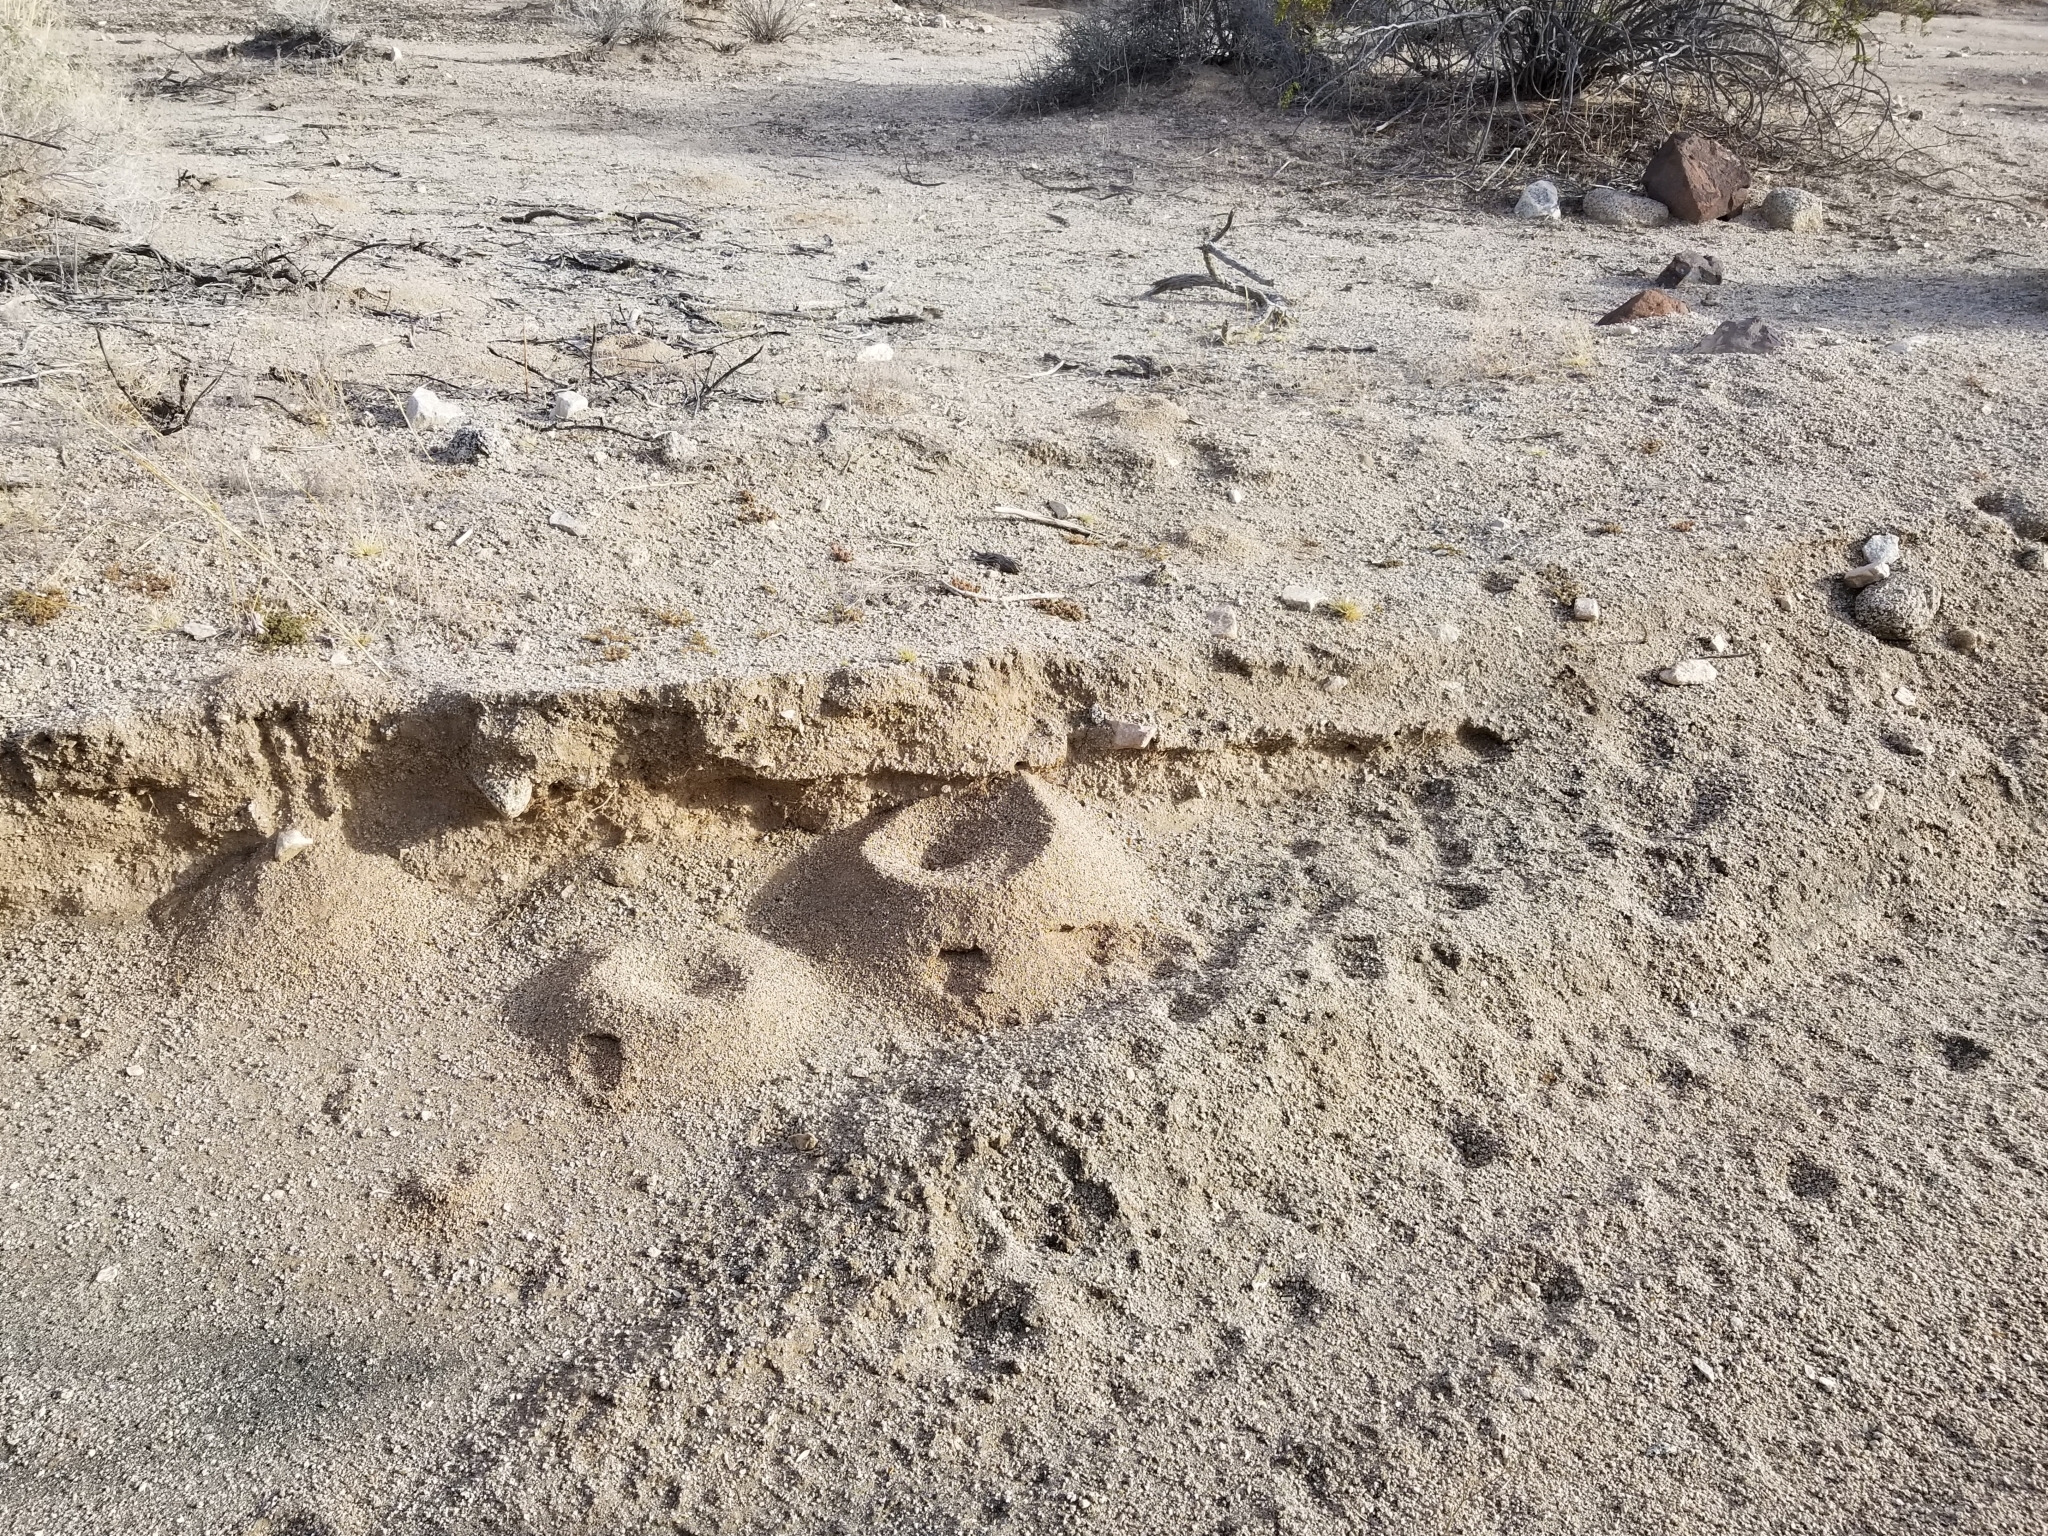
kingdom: Animalia
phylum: Arthropoda
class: Insecta
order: Hymenoptera
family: Formicidae
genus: Acromyrmex
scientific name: Acromyrmex versicolor
